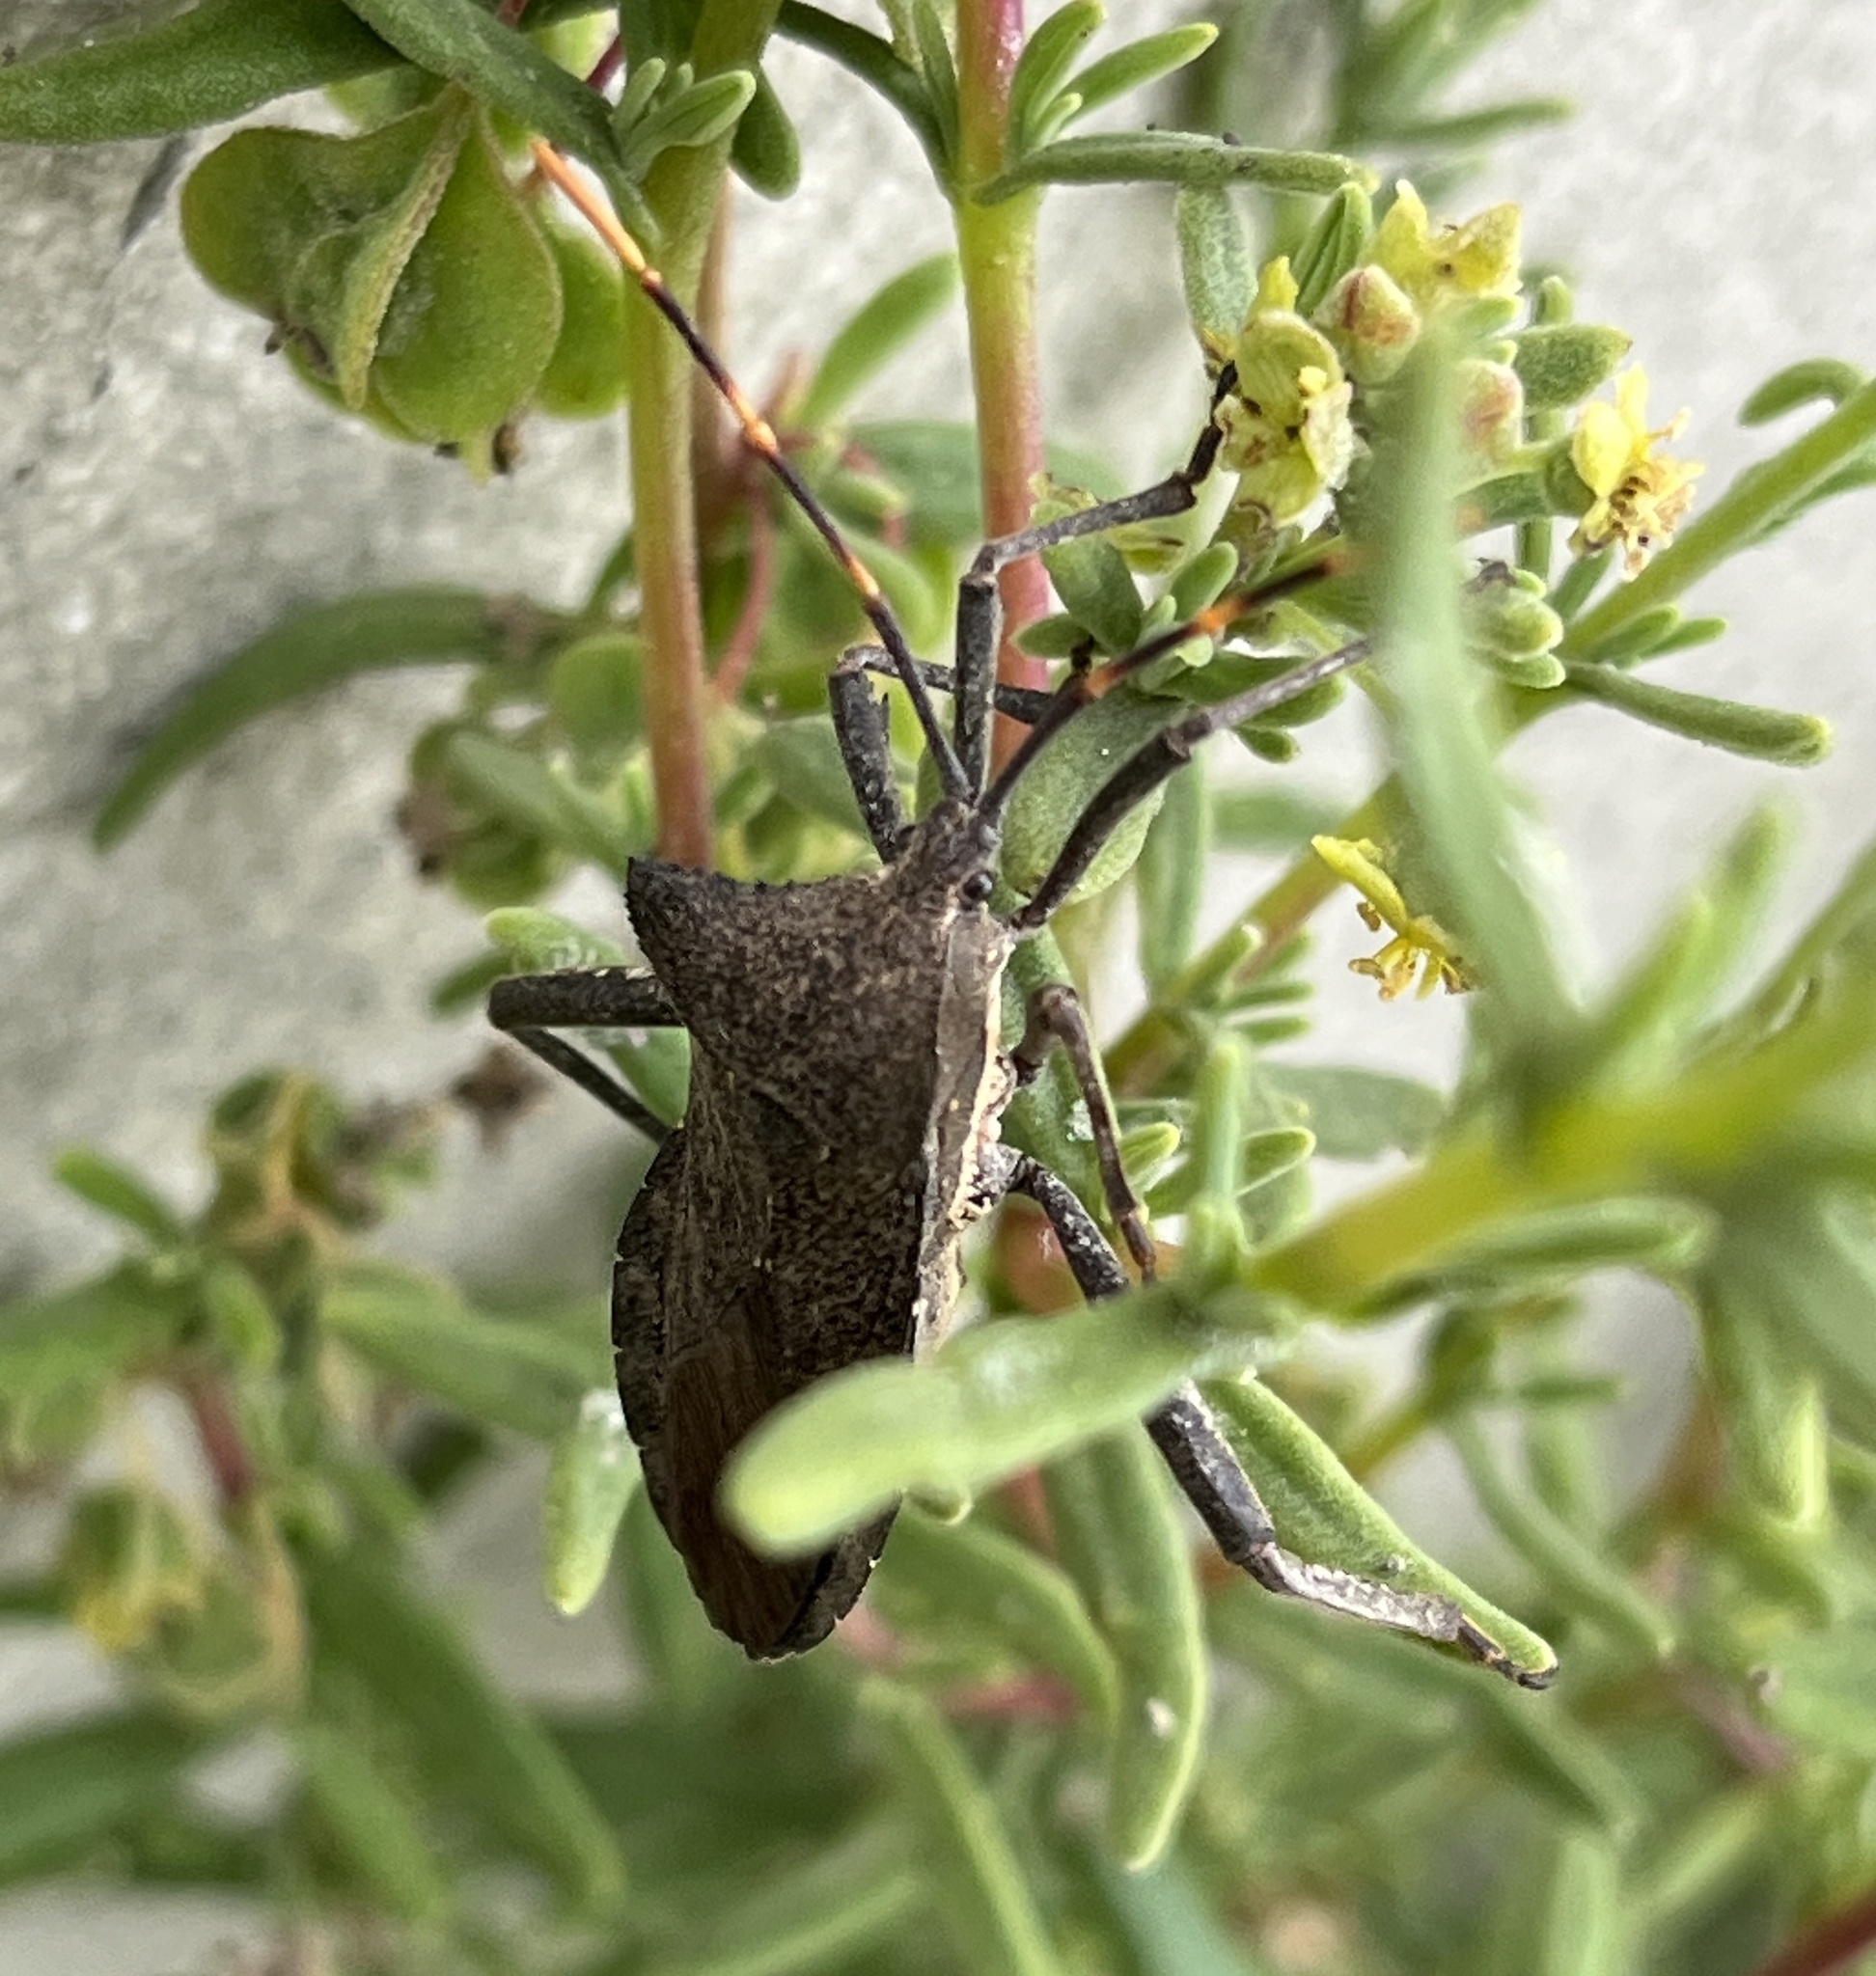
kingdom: Animalia
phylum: Arthropoda
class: Insecta
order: Hemiptera
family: Coreidae
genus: Elasmopoda
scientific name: Elasmopoda valga
